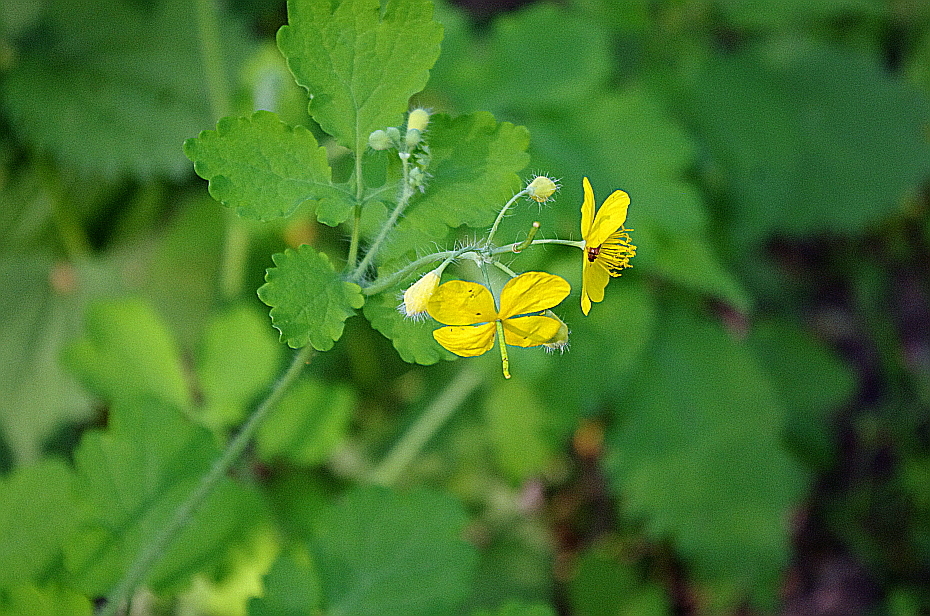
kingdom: Plantae
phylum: Tracheophyta
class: Magnoliopsida
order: Ranunculales
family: Papaveraceae
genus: Chelidonium
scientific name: Chelidonium majus
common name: Greater celandine
